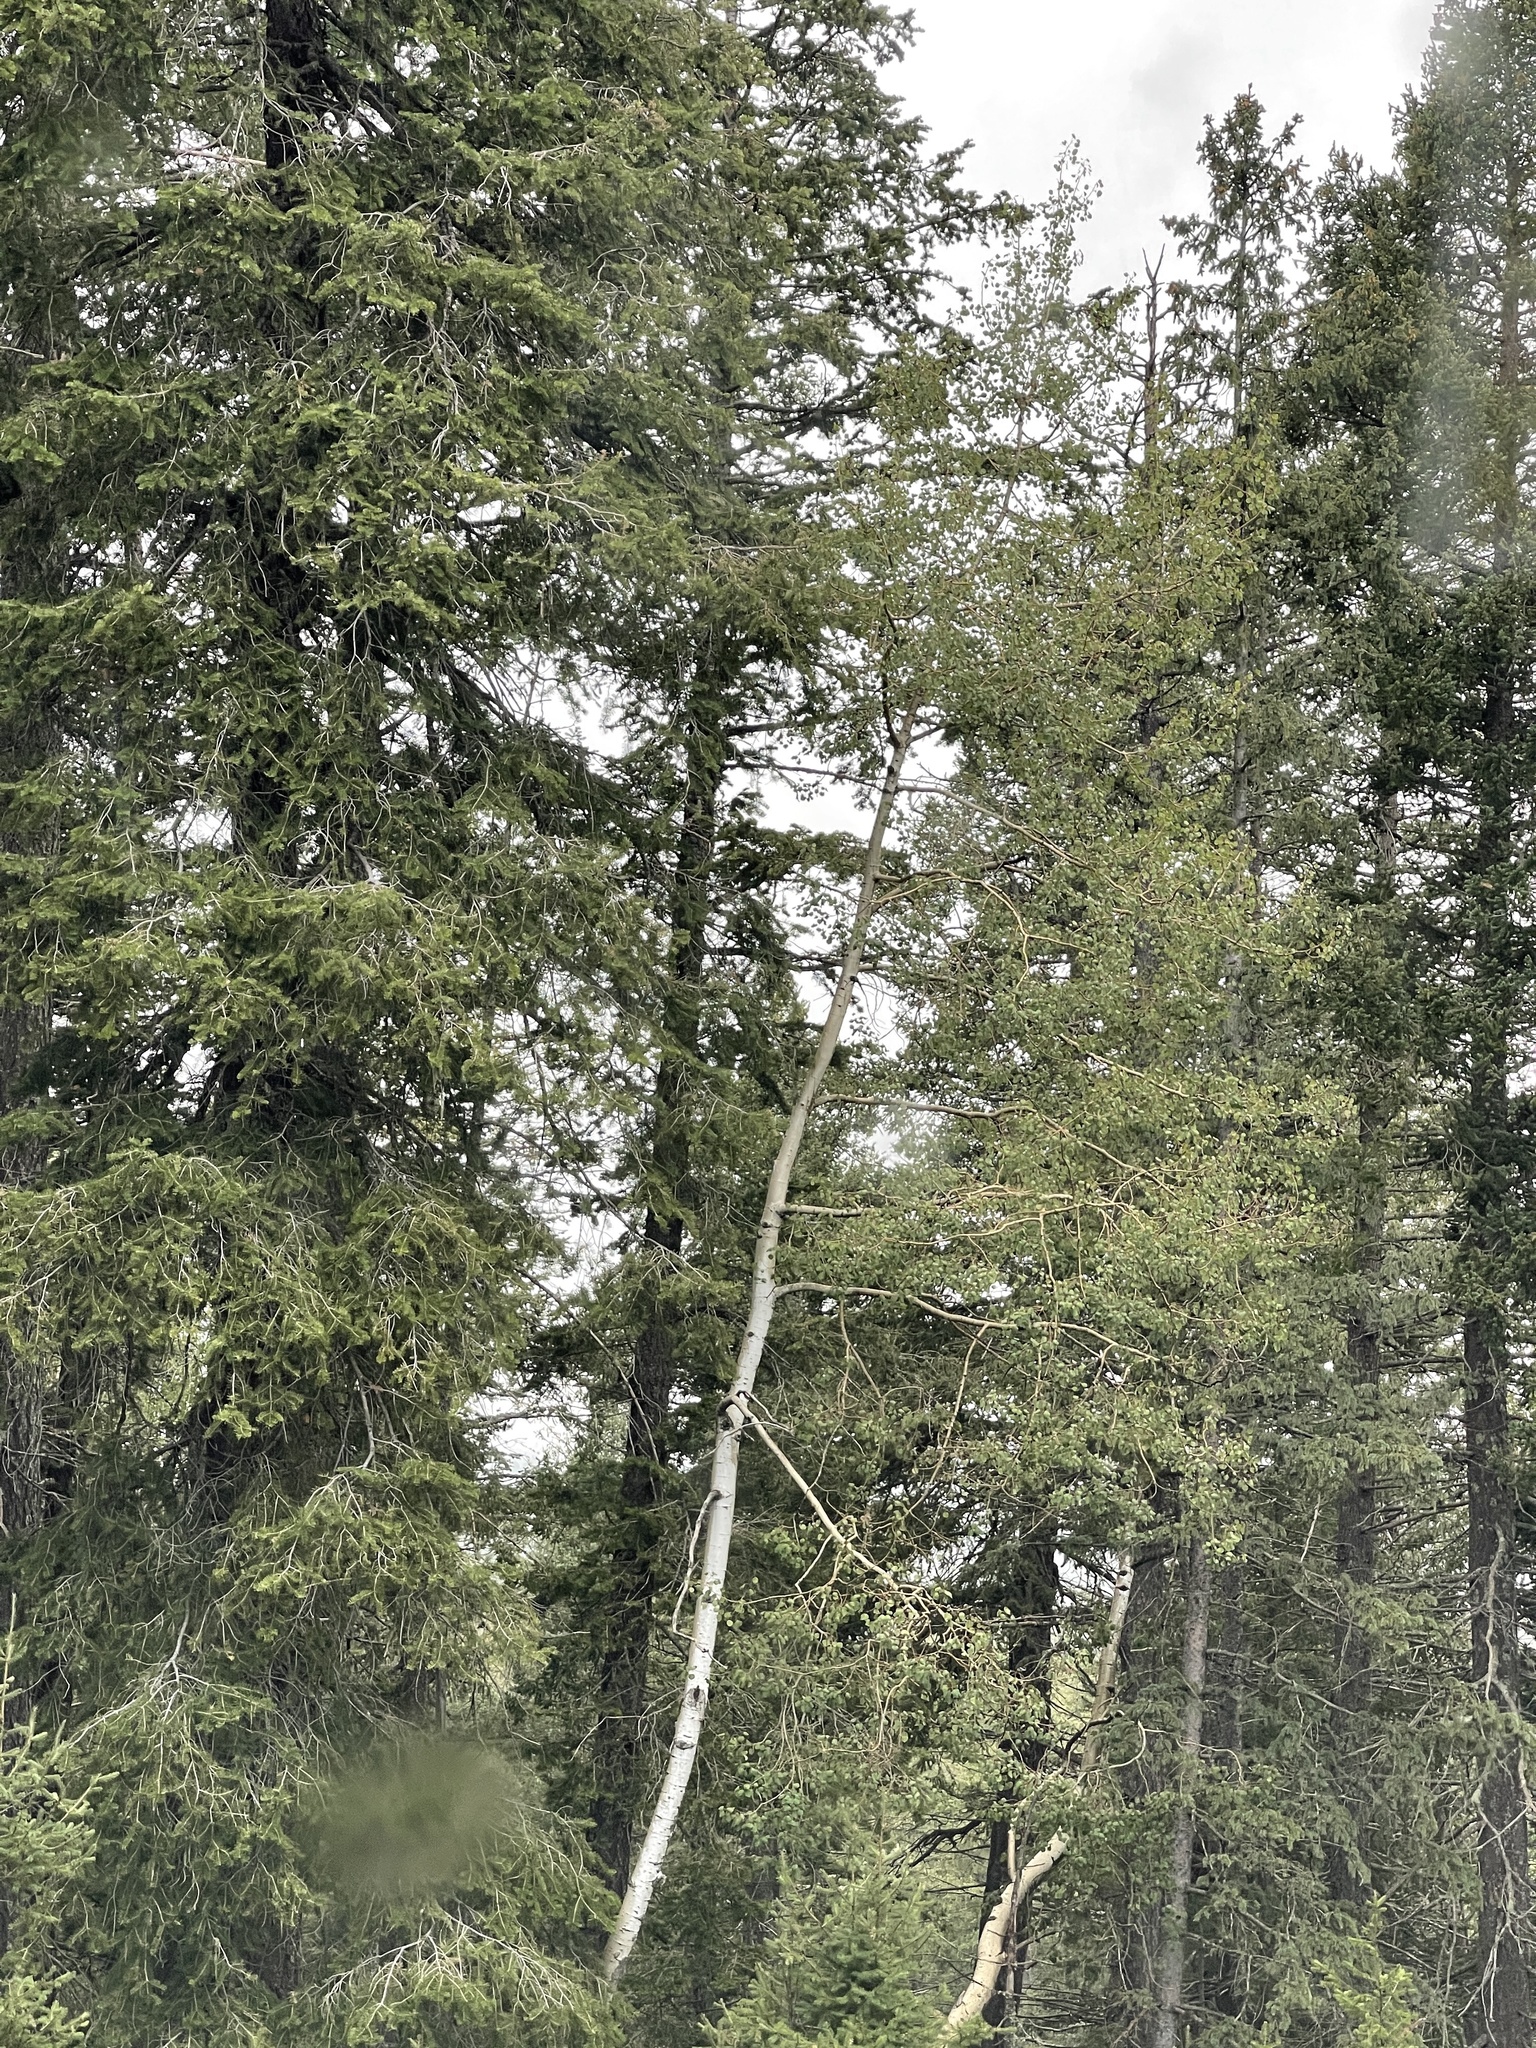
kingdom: Plantae
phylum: Tracheophyta
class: Magnoliopsida
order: Malpighiales
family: Salicaceae
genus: Populus
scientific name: Populus tremuloides
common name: Quaking aspen
